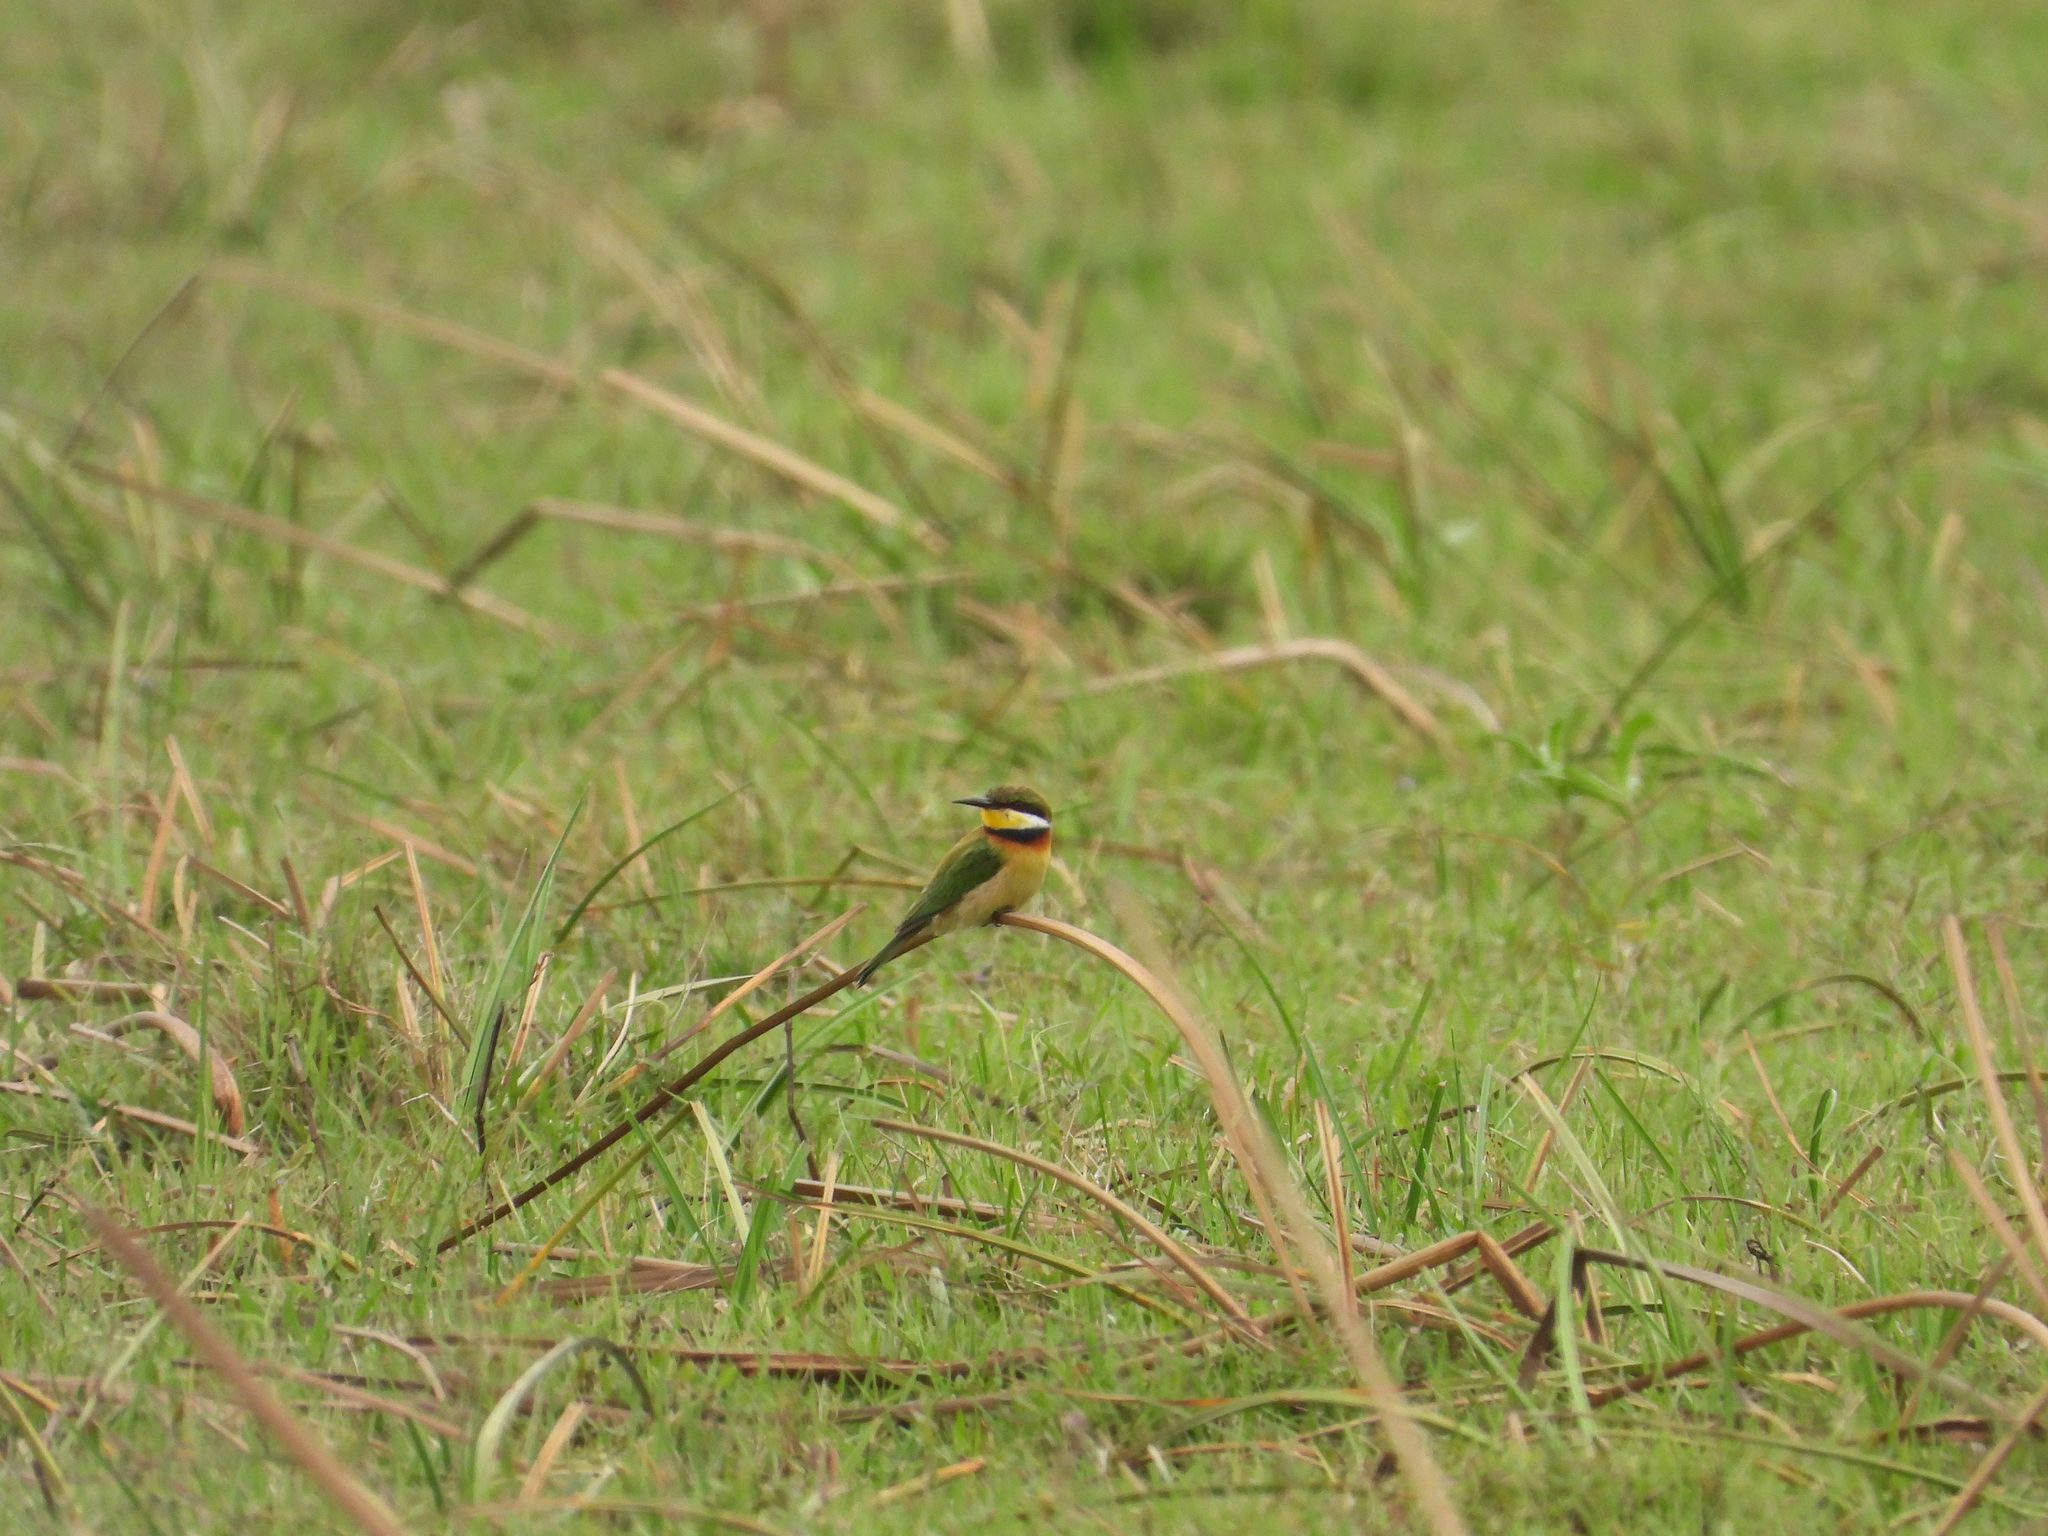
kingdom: Animalia
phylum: Chordata
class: Aves
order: Coraciiformes
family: Meropidae
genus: Merops
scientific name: Merops variegatus
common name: Blue-breasted bee-eater
